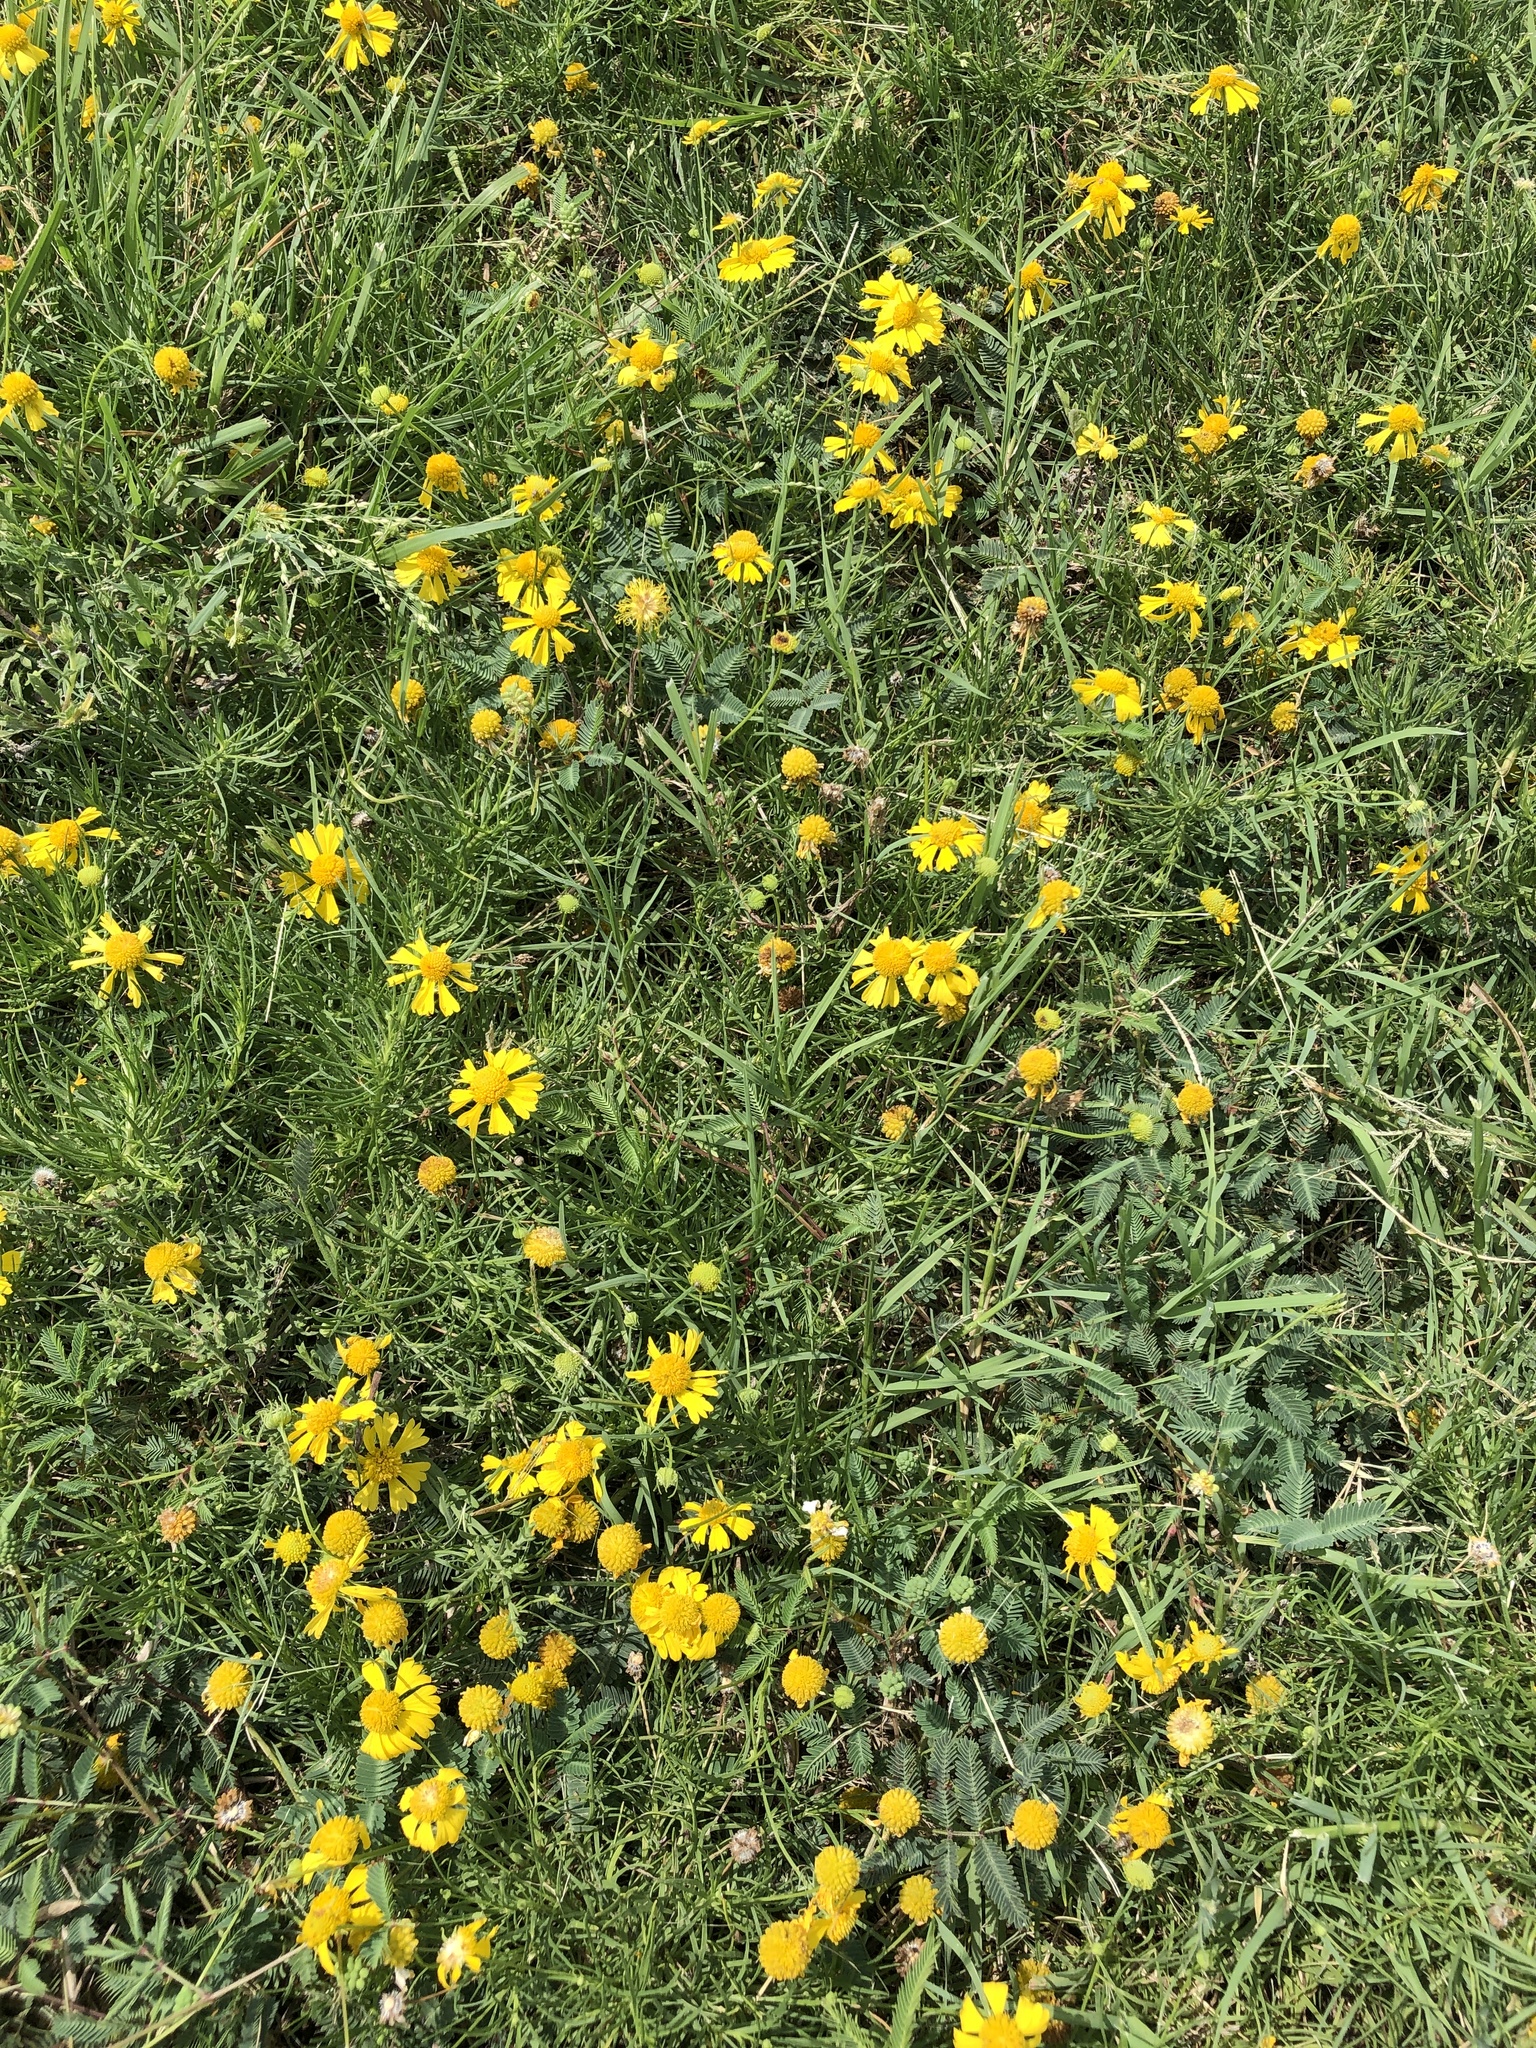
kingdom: Plantae
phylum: Tracheophyta
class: Magnoliopsida
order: Asterales
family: Asteraceae
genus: Helenium
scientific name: Helenium amarum
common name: Bitter sneezeweed
